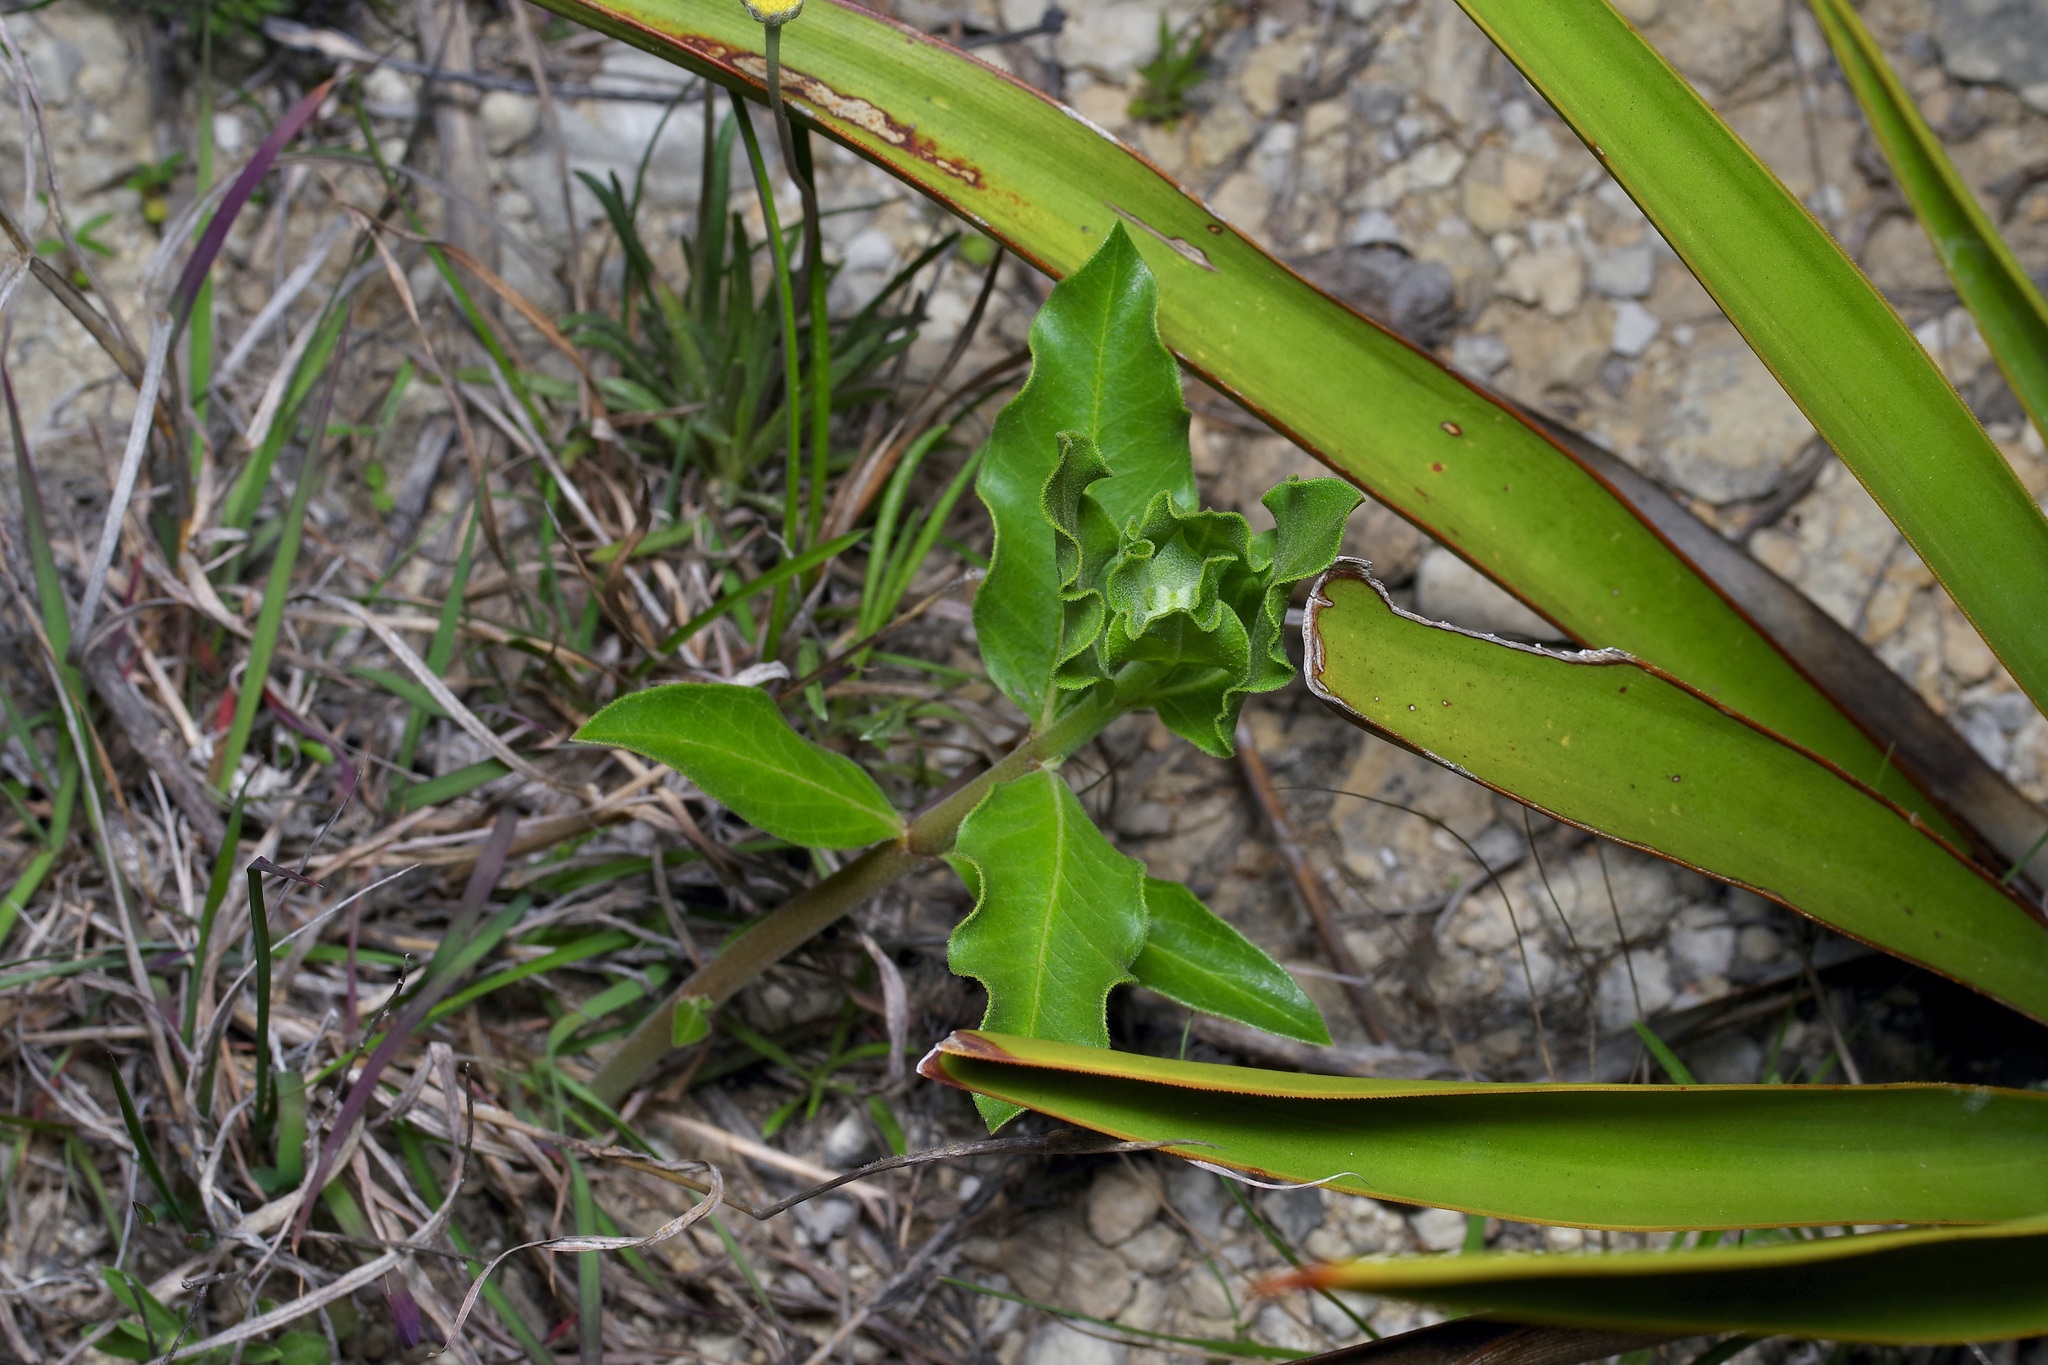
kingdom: Plantae
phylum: Tracheophyta
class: Magnoliopsida
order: Gentianales
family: Apocynaceae
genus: Asclepias
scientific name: Asclepias viridiflora
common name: Green comet milkweed
